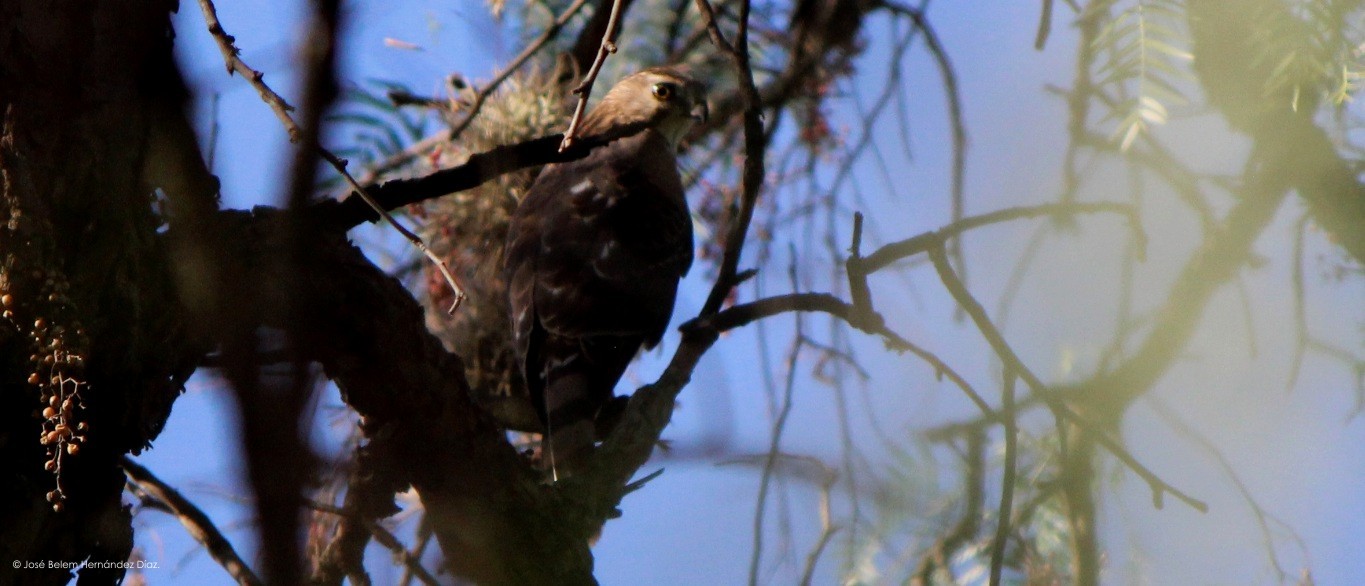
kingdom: Animalia
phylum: Chordata
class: Aves
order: Accipitriformes
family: Accipitridae
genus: Accipiter
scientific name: Accipiter striatus
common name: Sharp-shinned hawk
